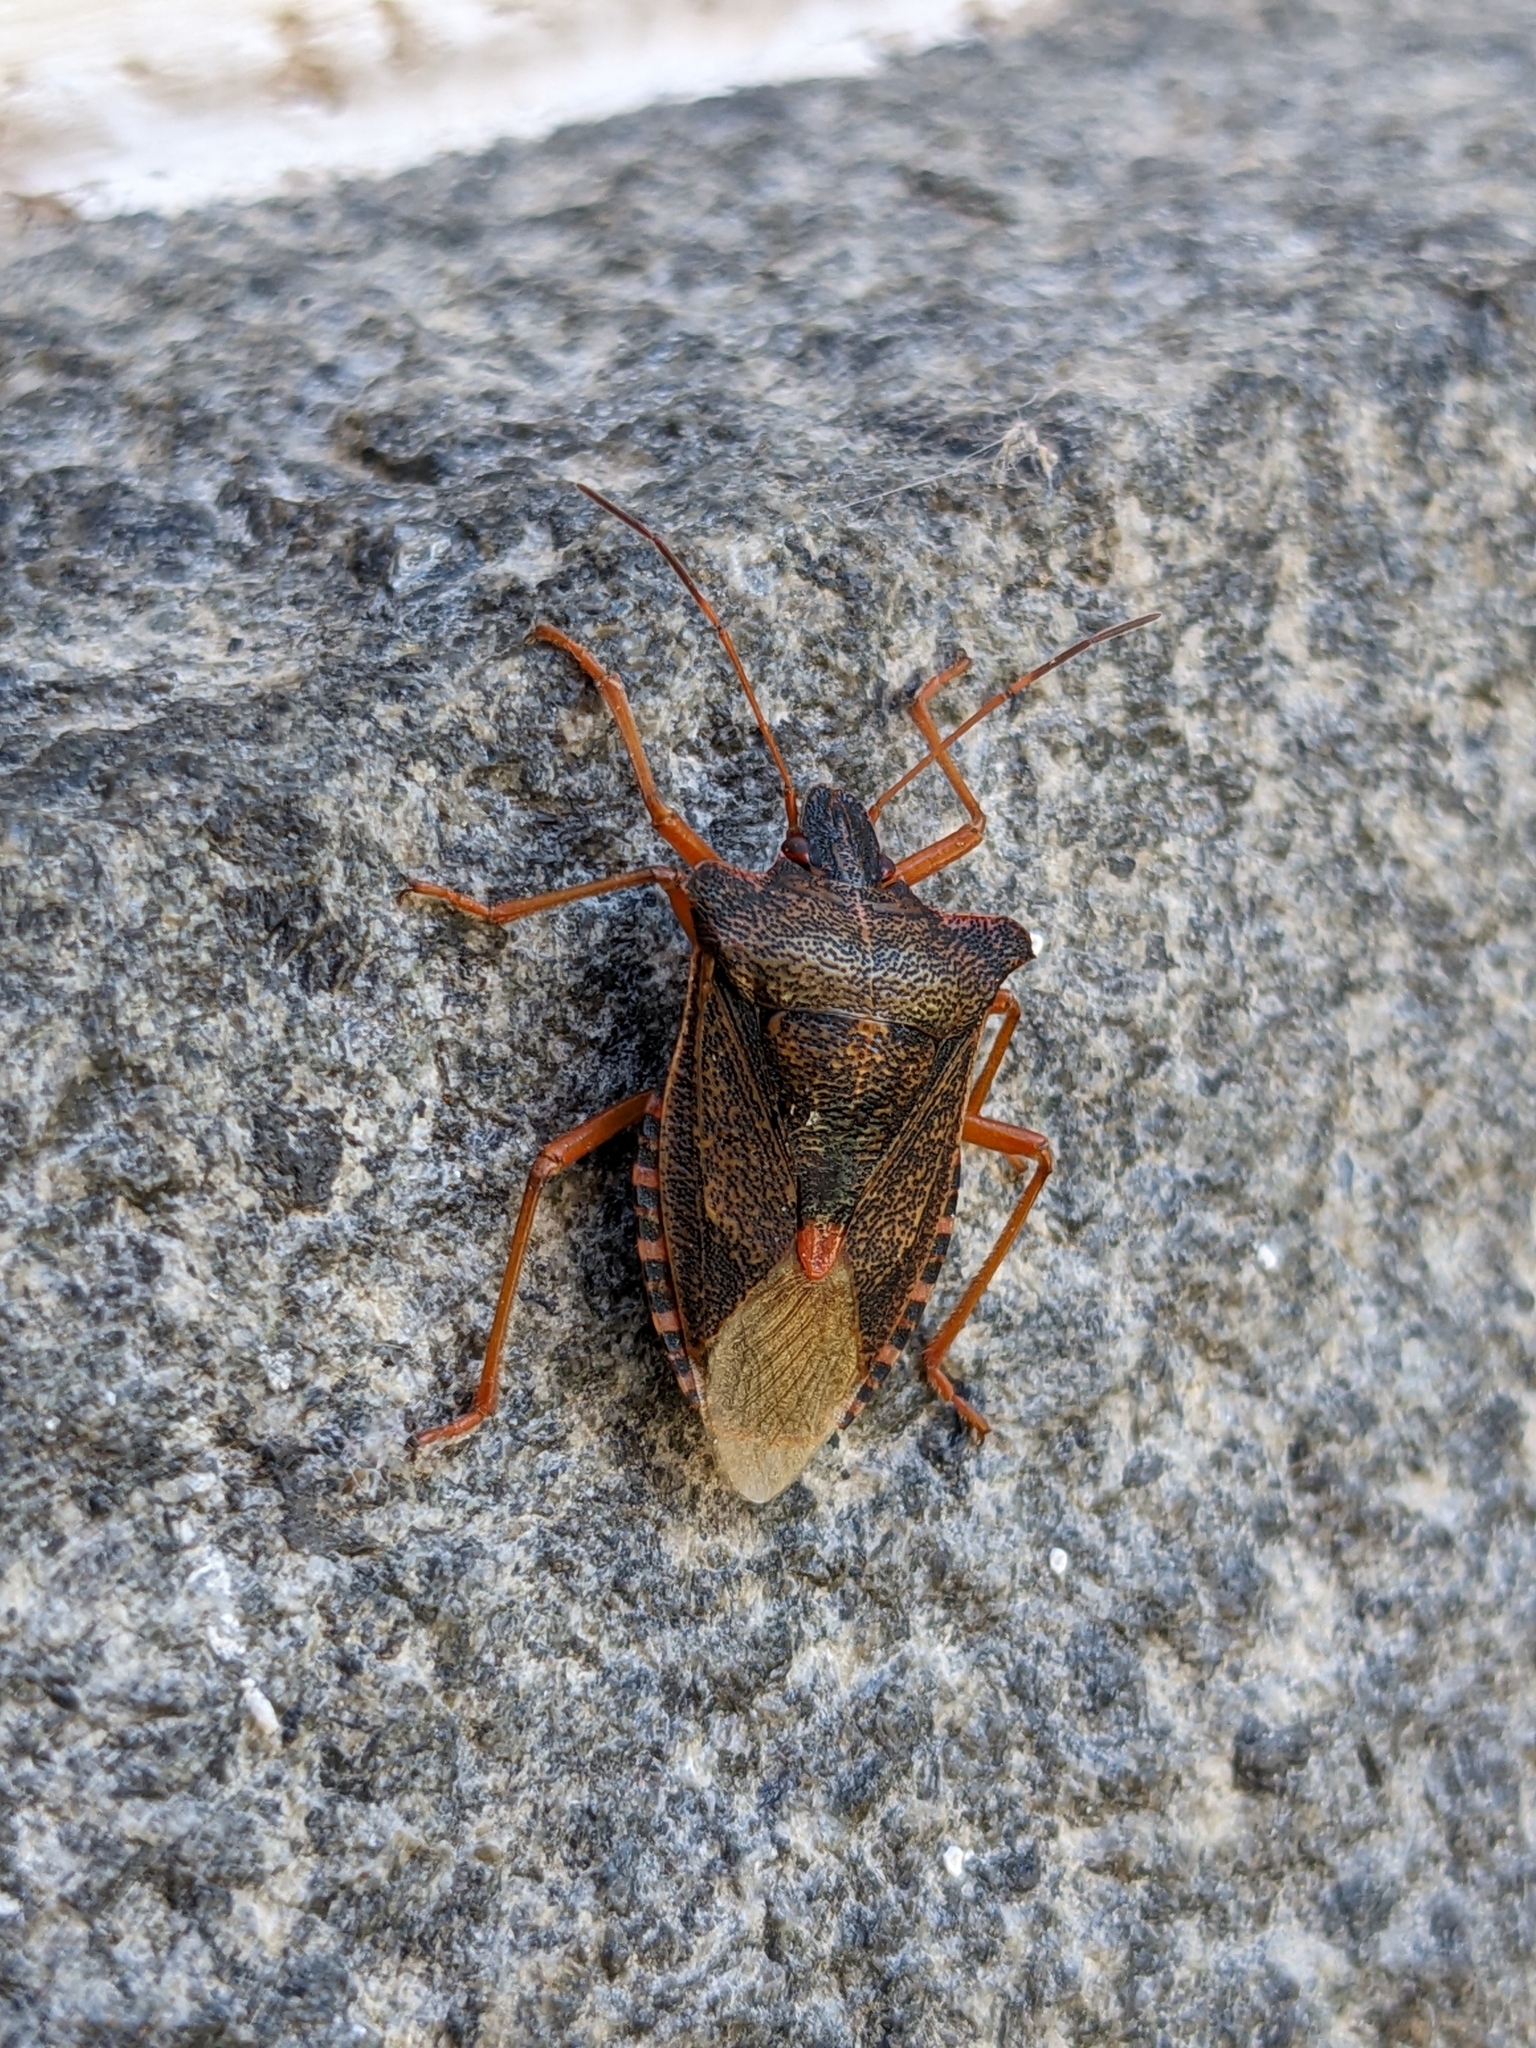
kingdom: Animalia
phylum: Arthropoda
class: Insecta
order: Hemiptera
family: Pentatomidae
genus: Pentatoma
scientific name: Pentatoma rufipes
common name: Forest bug
